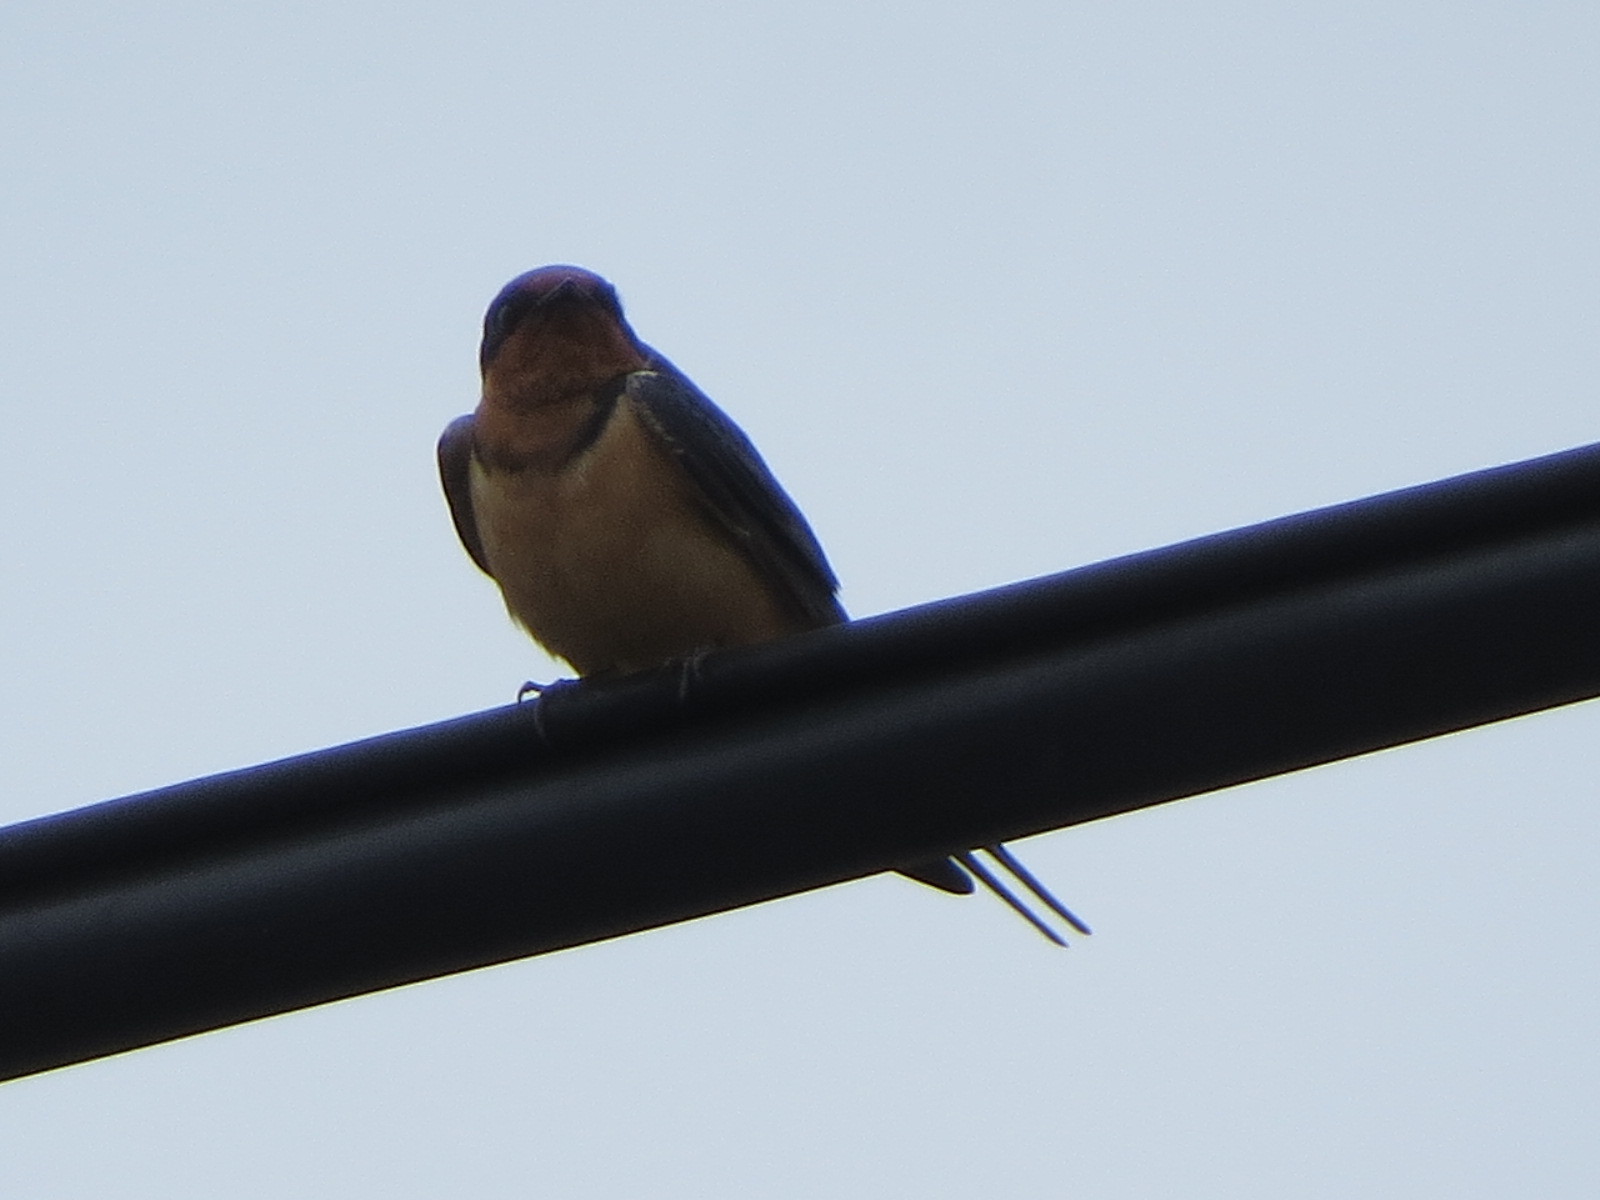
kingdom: Animalia
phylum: Chordata
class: Aves
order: Passeriformes
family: Hirundinidae
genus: Hirundo
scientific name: Hirundo rustica
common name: Barn swallow
